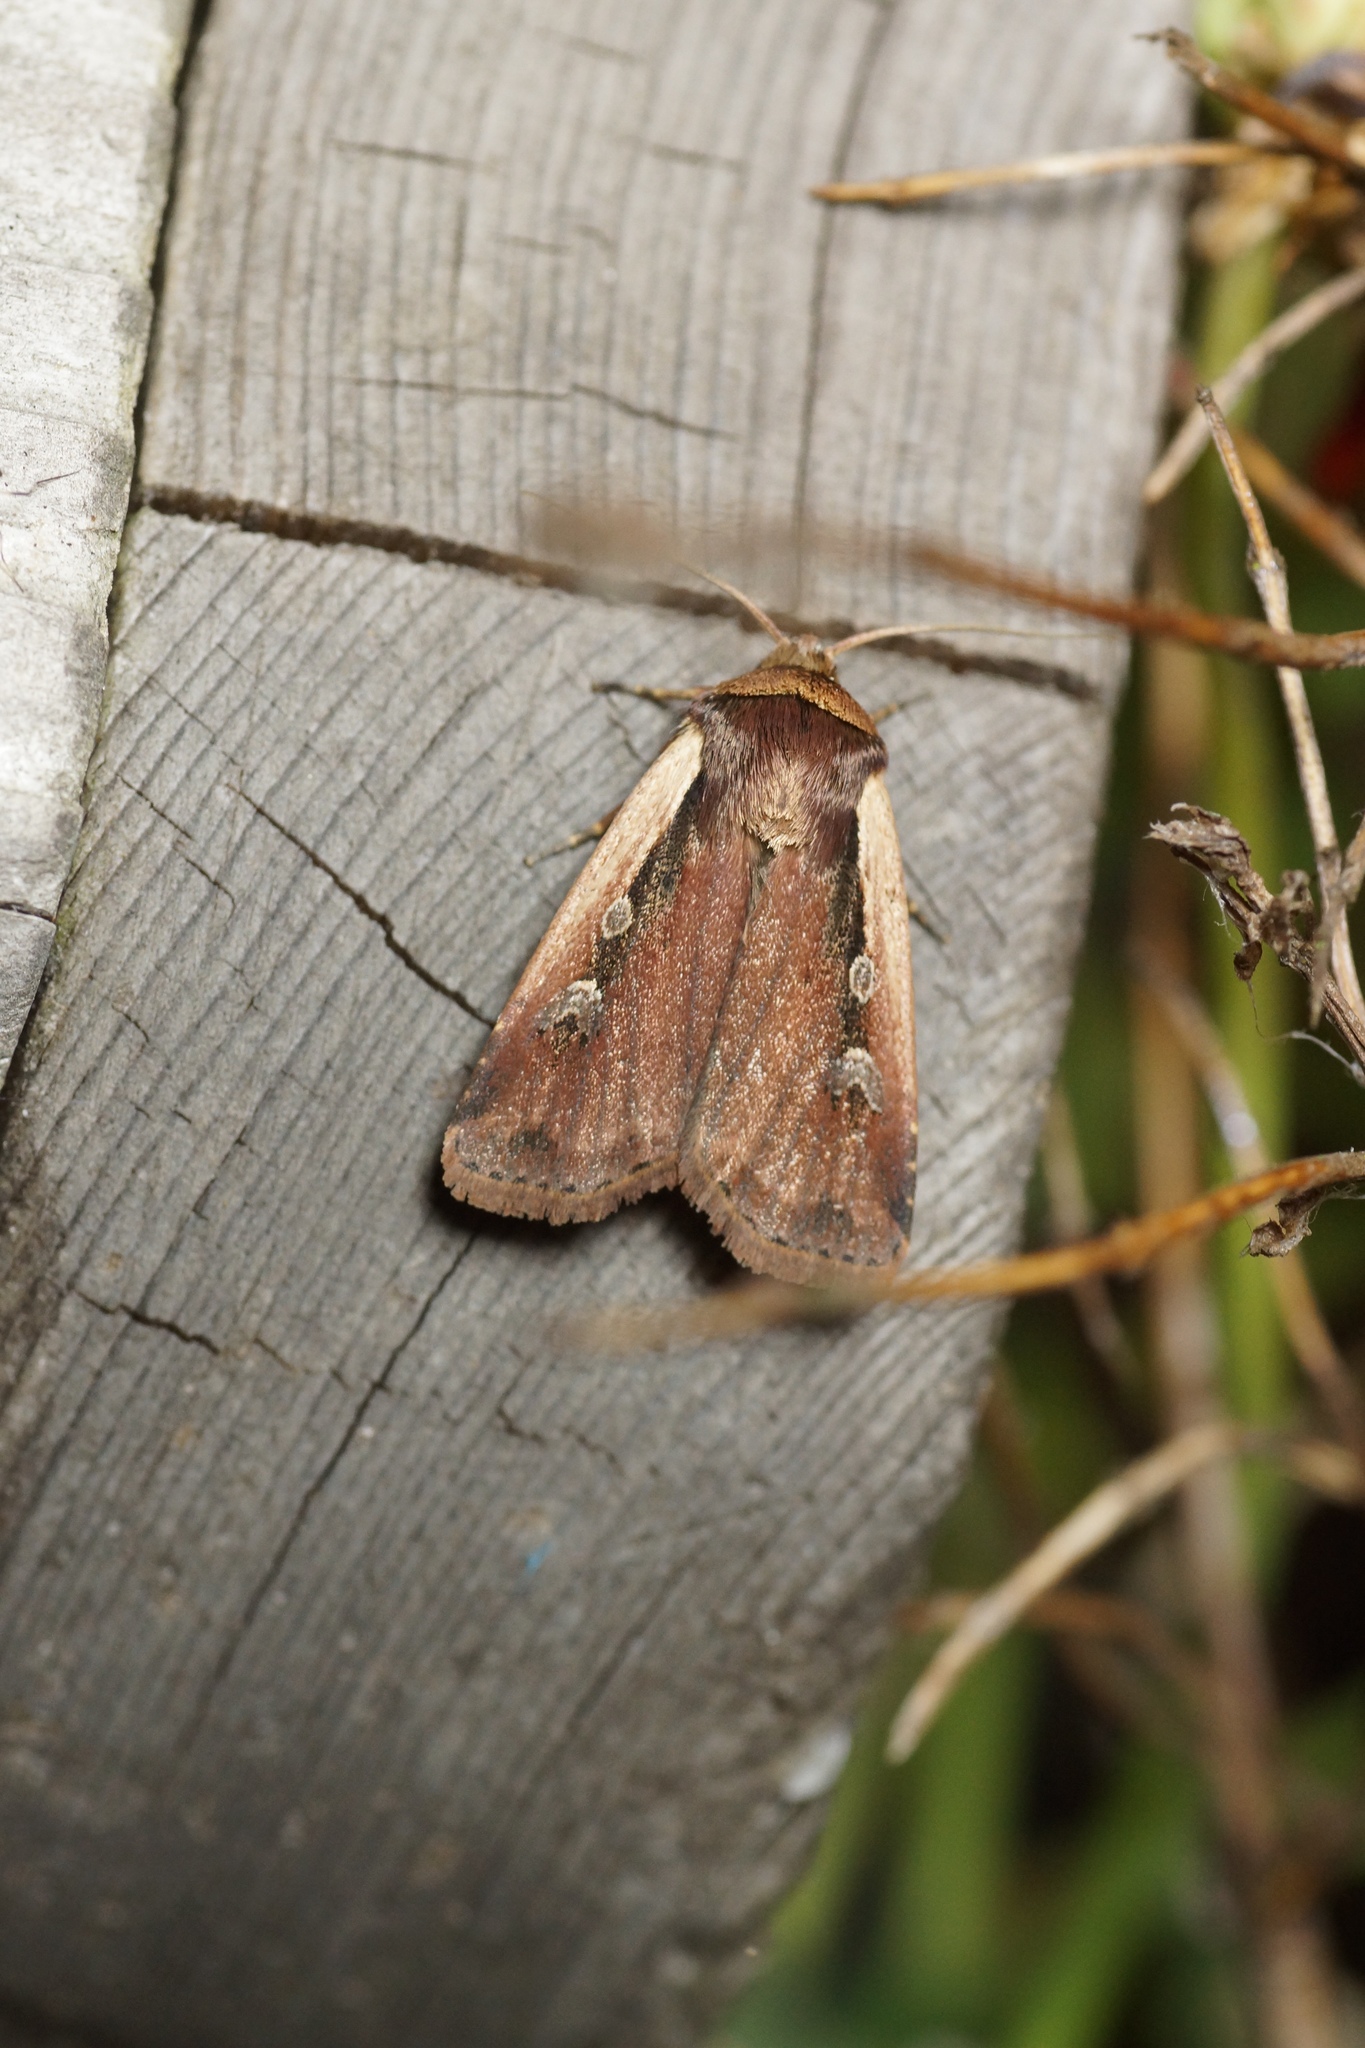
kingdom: Animalia
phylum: Arthropoda
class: Insecta
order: Lepidoptera
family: Noctuidae
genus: Ochropleura
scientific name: Ochropleura plecta
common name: Flame shoulder
